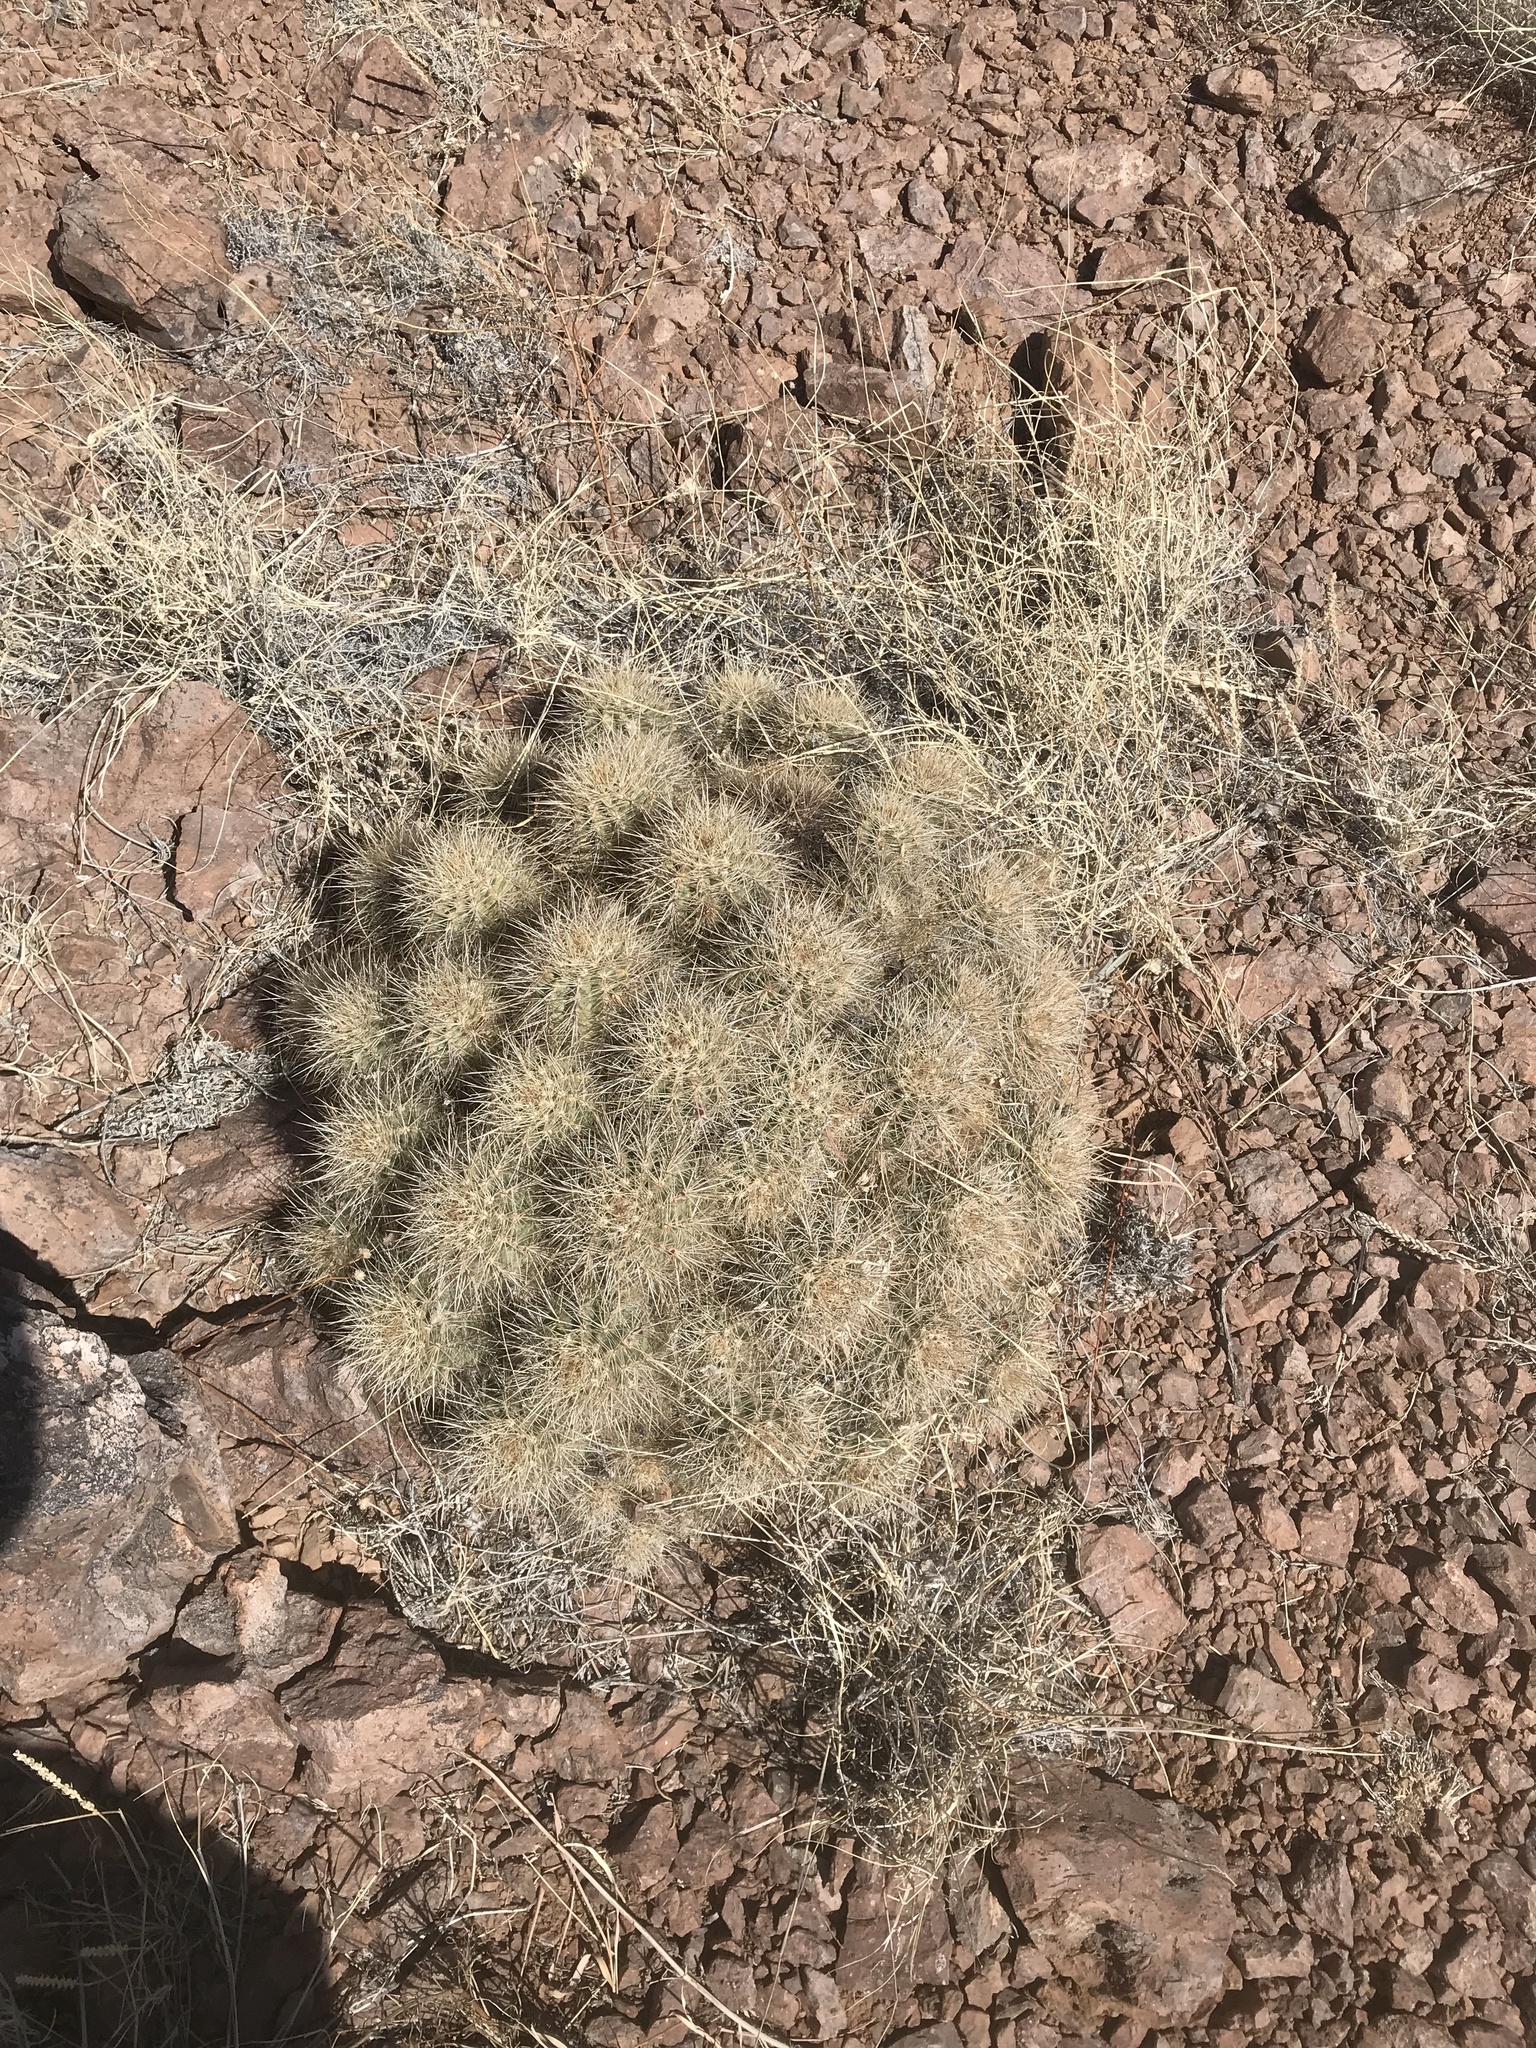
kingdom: Plantae
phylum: Tracheophyta
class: Magnoliopsida
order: Caryophyllales
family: Cactaceae
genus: Echinocereus
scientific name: Echinocereus coccineus
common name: Scarlet hedgehog cactus
